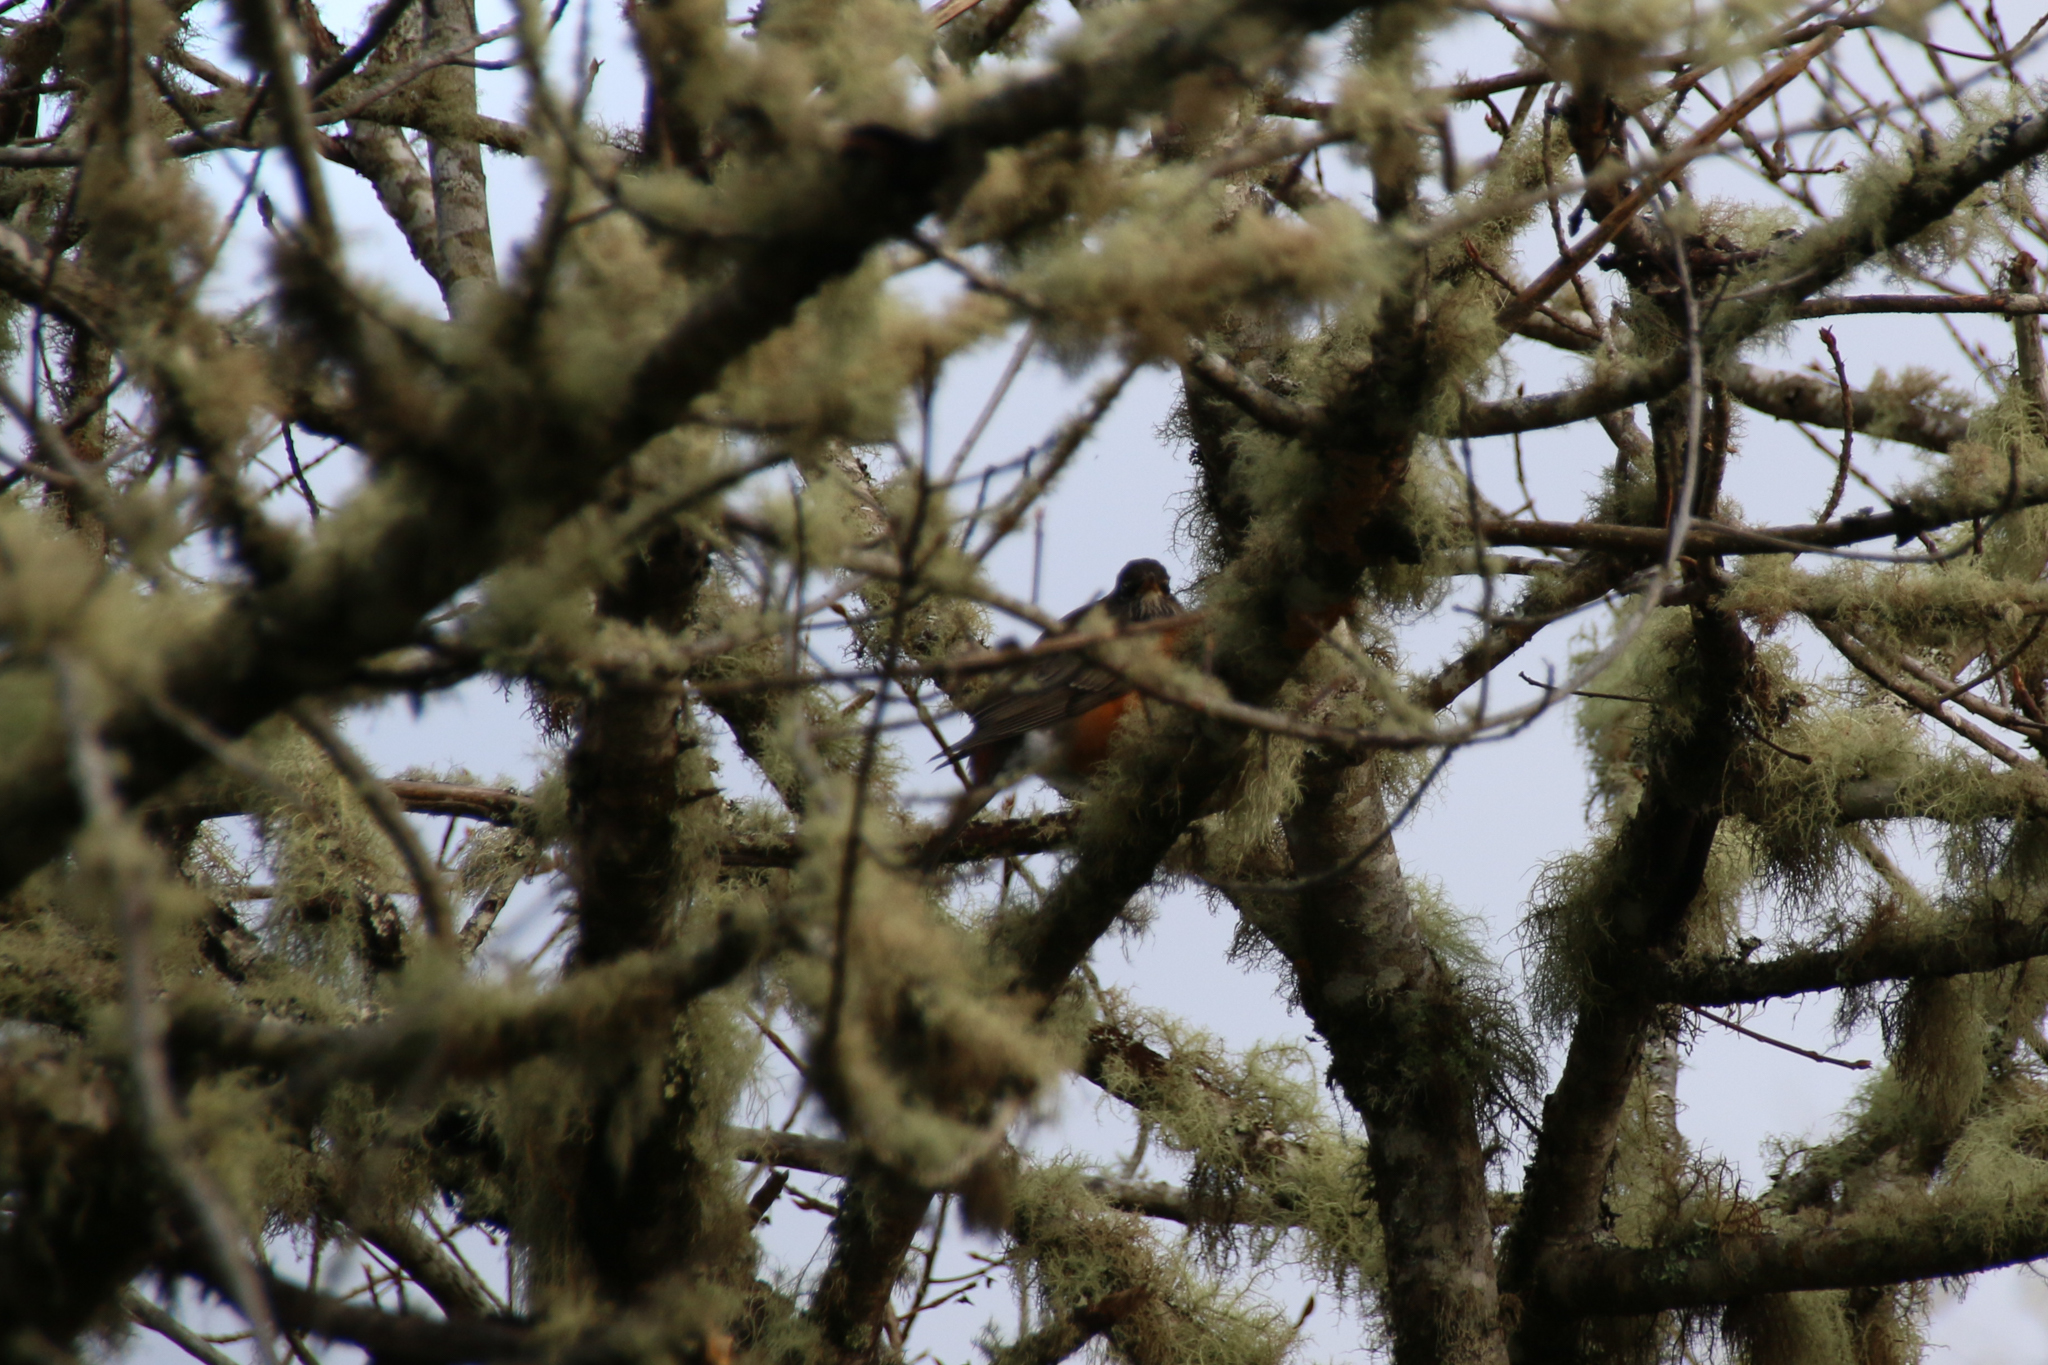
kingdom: Animalia
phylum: Chordata
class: Aves
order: Passeriformes
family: Turdidae
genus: Turdus
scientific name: Turdus migratorius
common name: American robin
